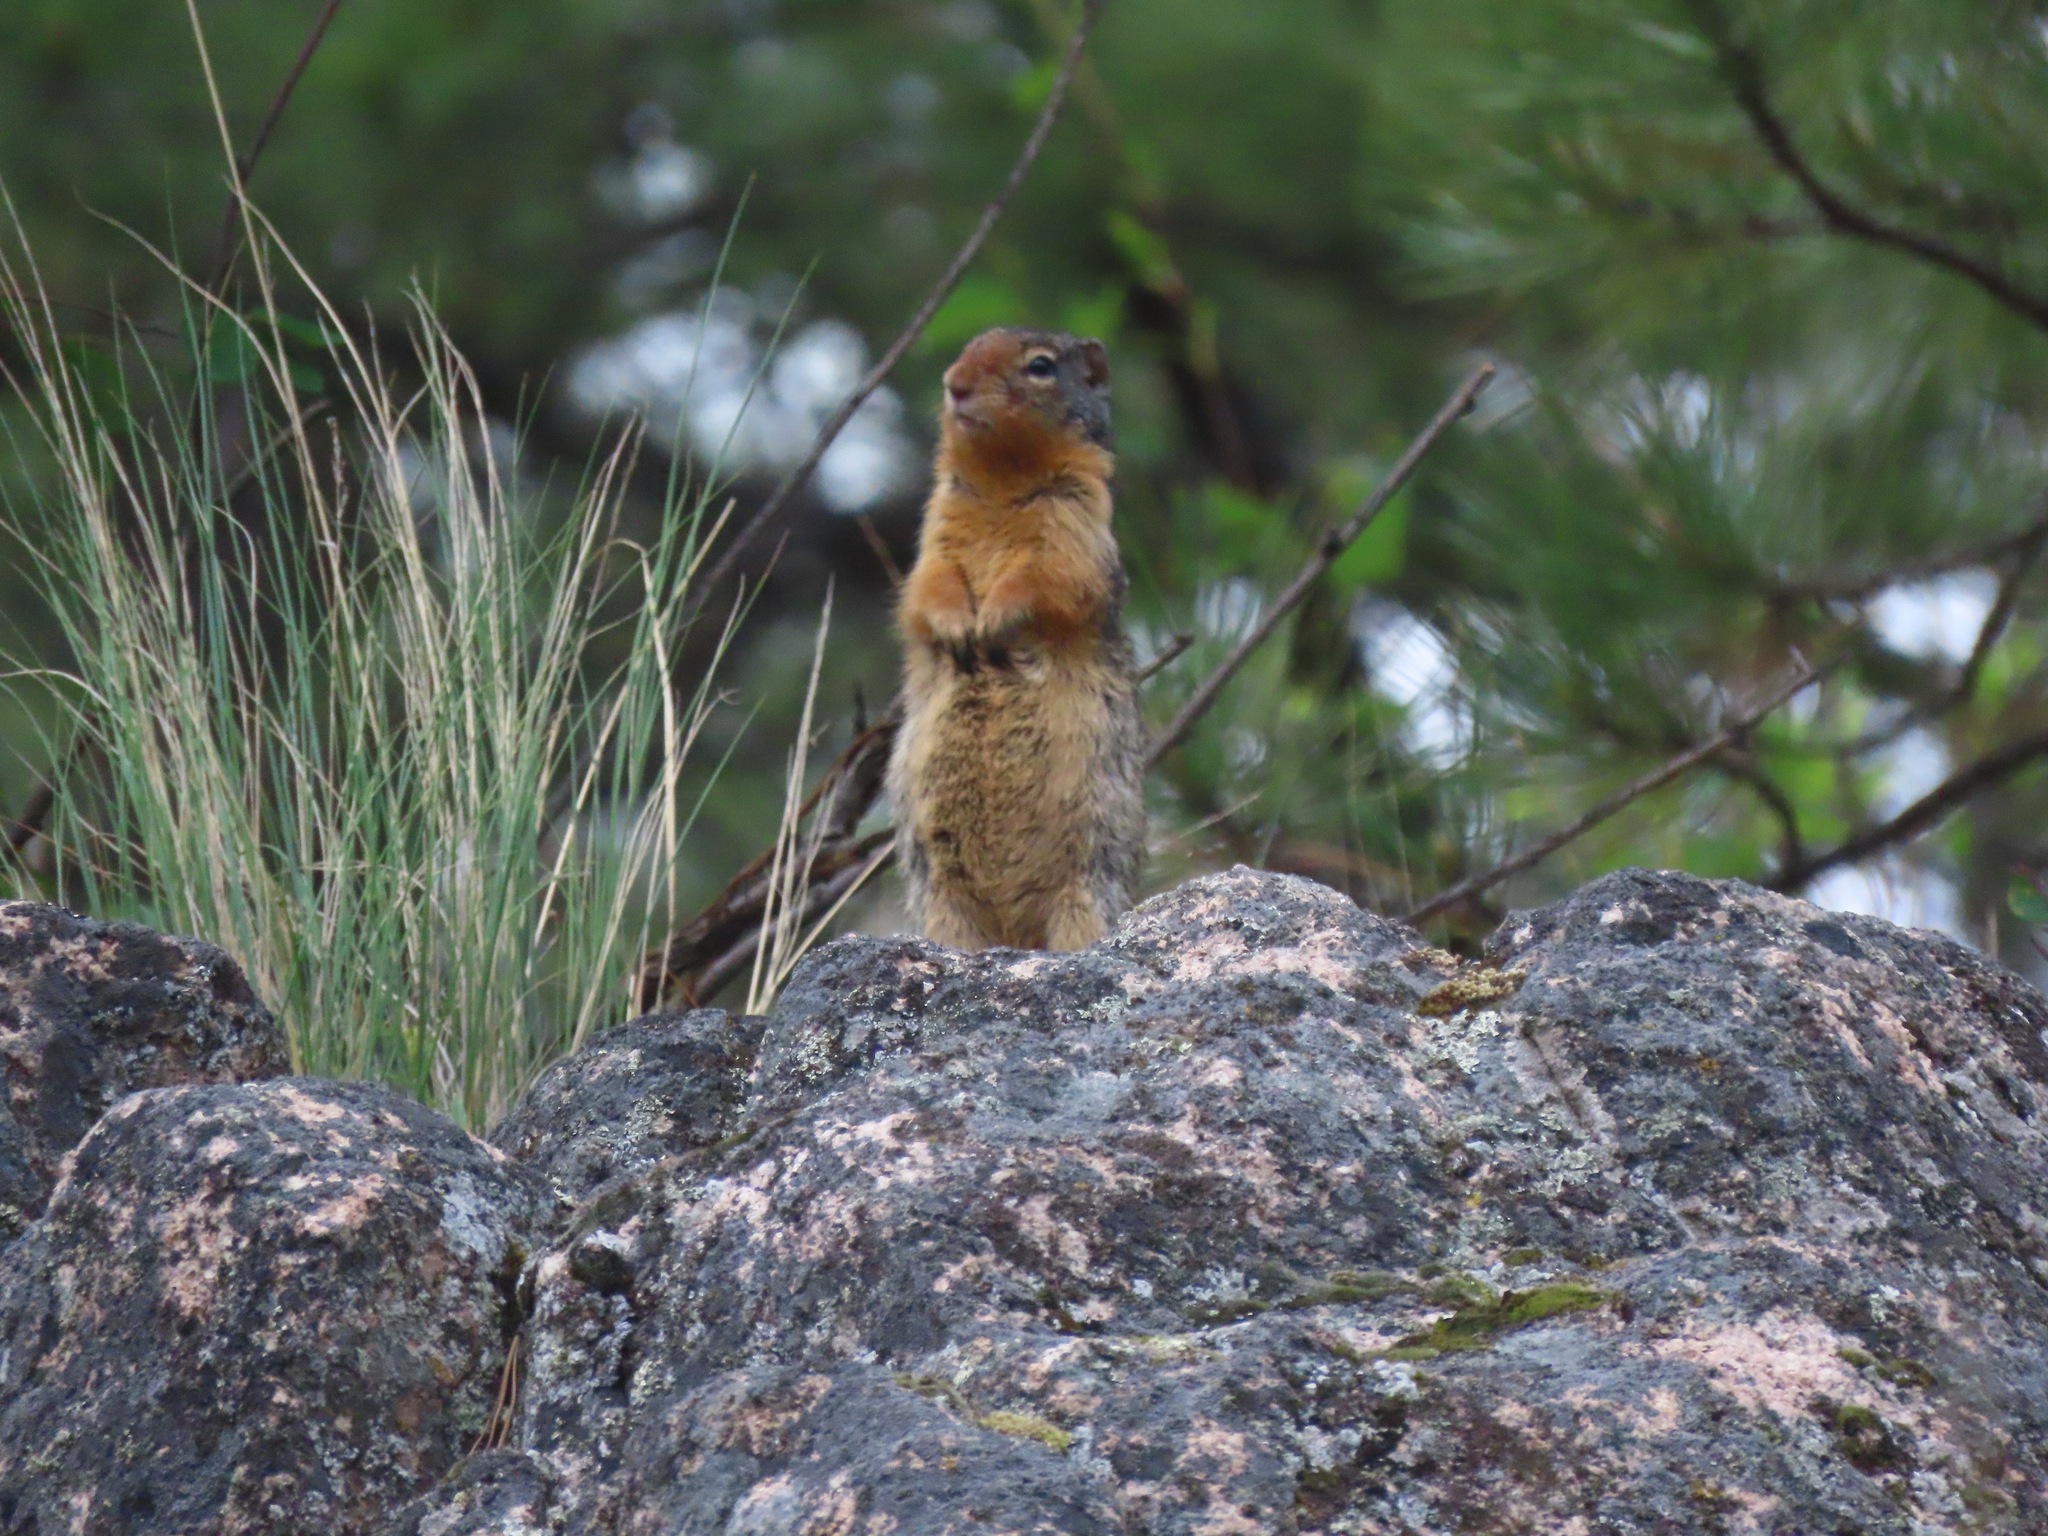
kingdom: Animalia
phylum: Chordata
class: Mammalia
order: Rodentia
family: Sciuridae
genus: Urocitellus
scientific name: Urocitellus columbianus
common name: Columbian ground squirrel
